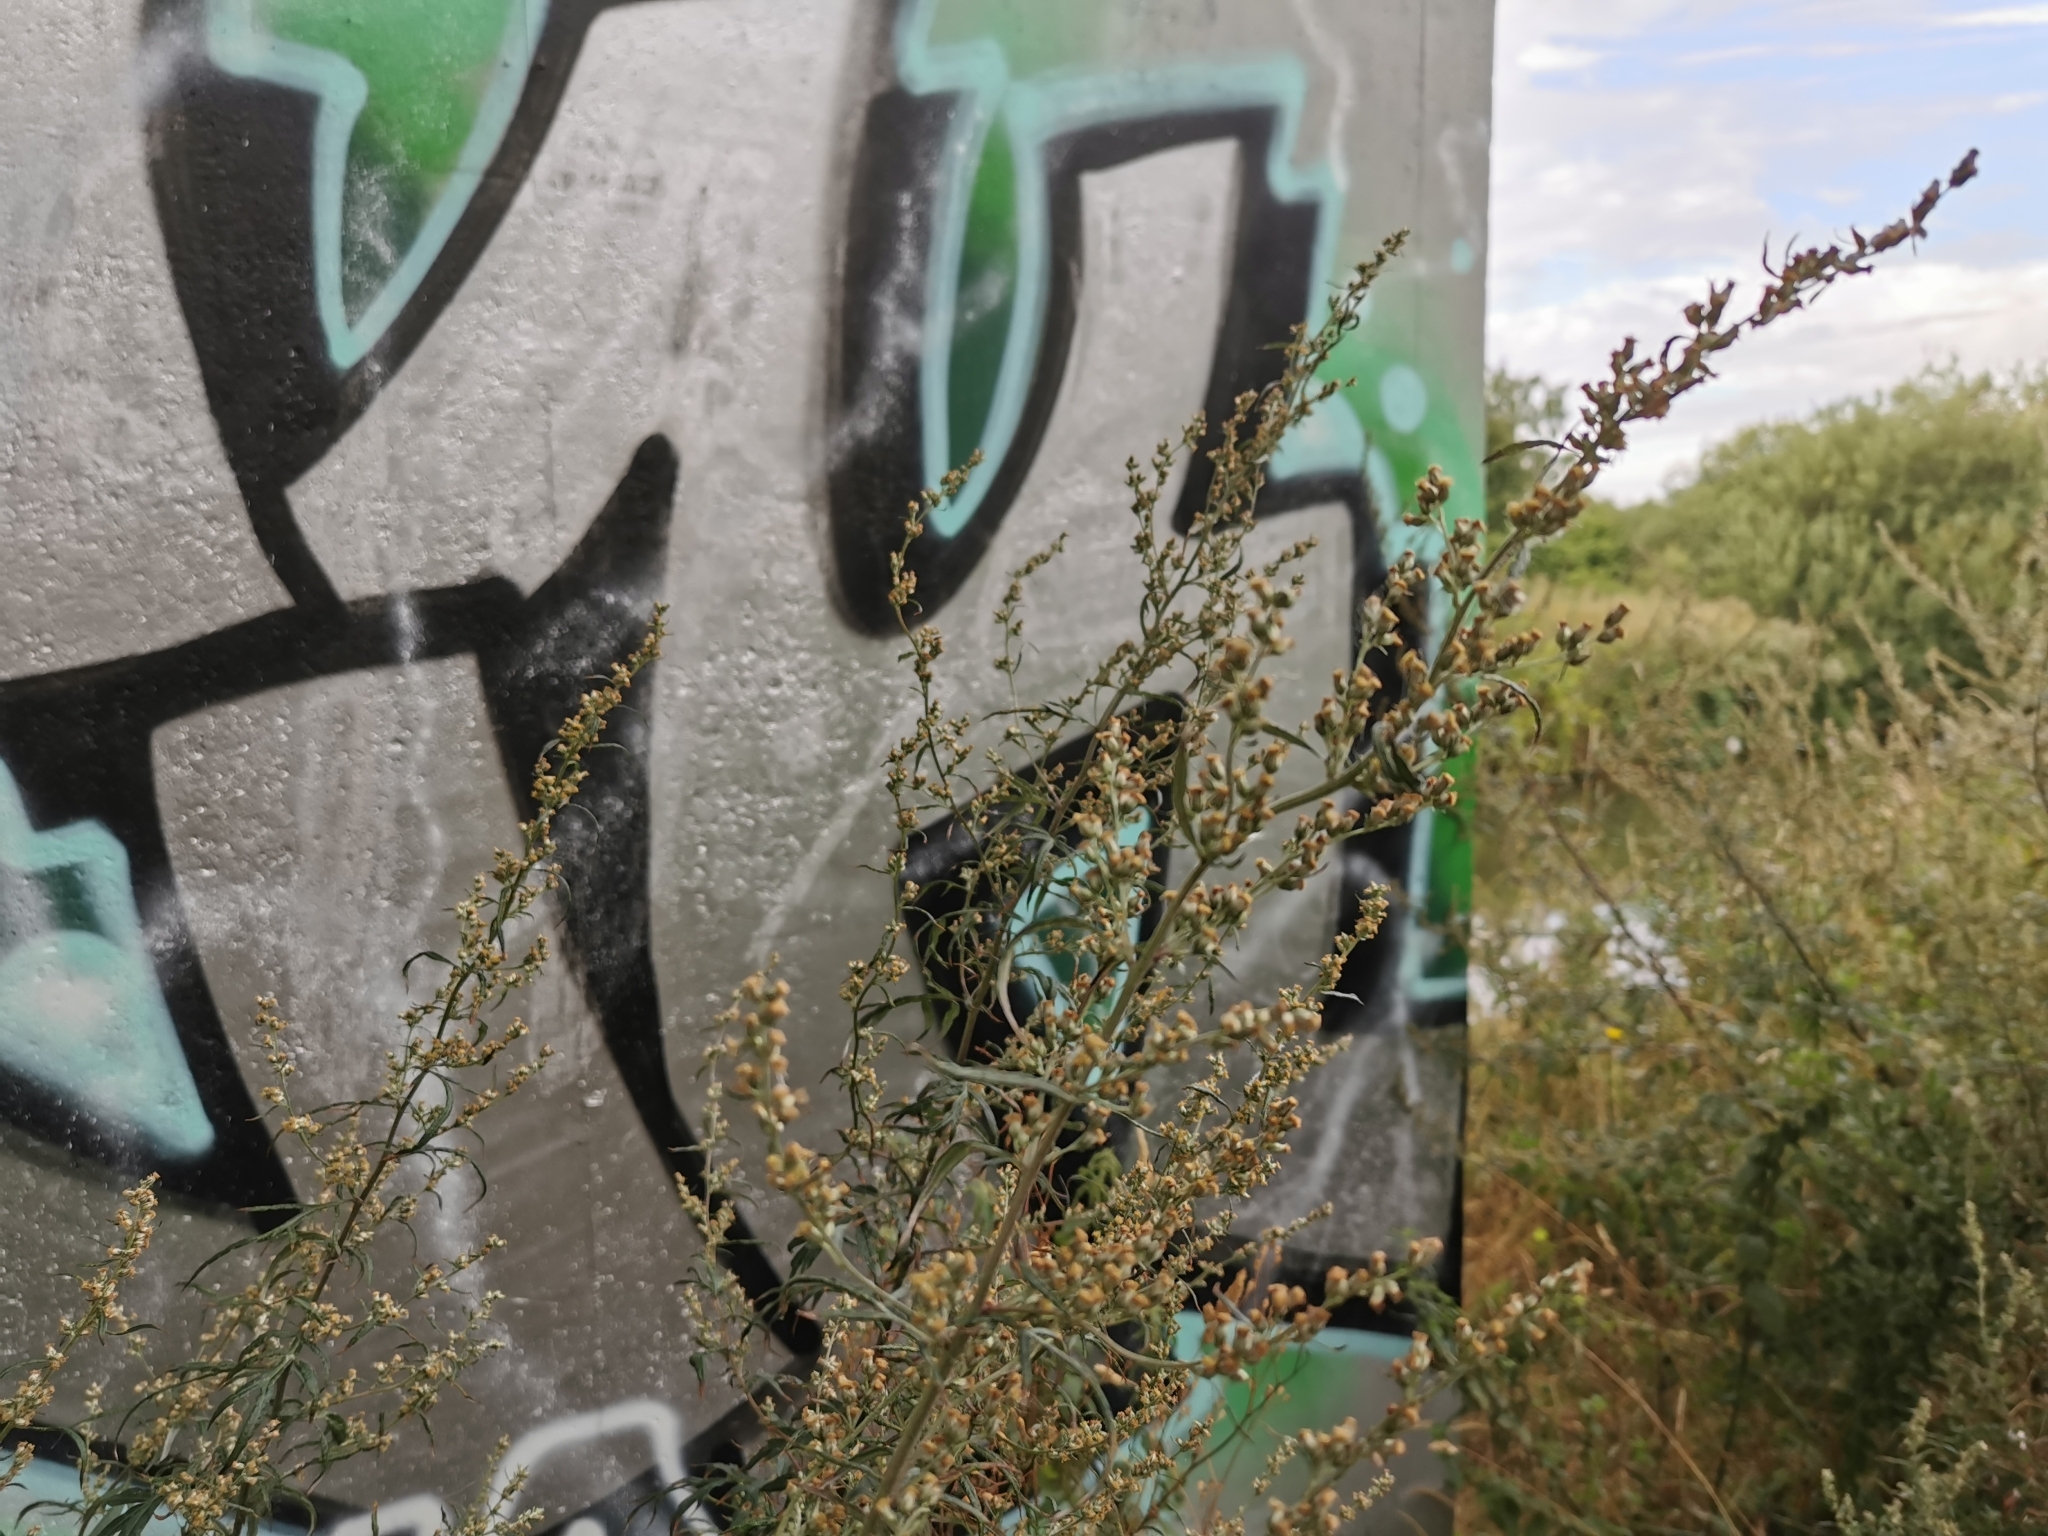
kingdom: Plantae
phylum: Tracheophyta
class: Magnoliopsida
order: Asterales
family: Asteraceae
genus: Artemisia
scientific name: Artemisia vulgaris
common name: Mugwort
